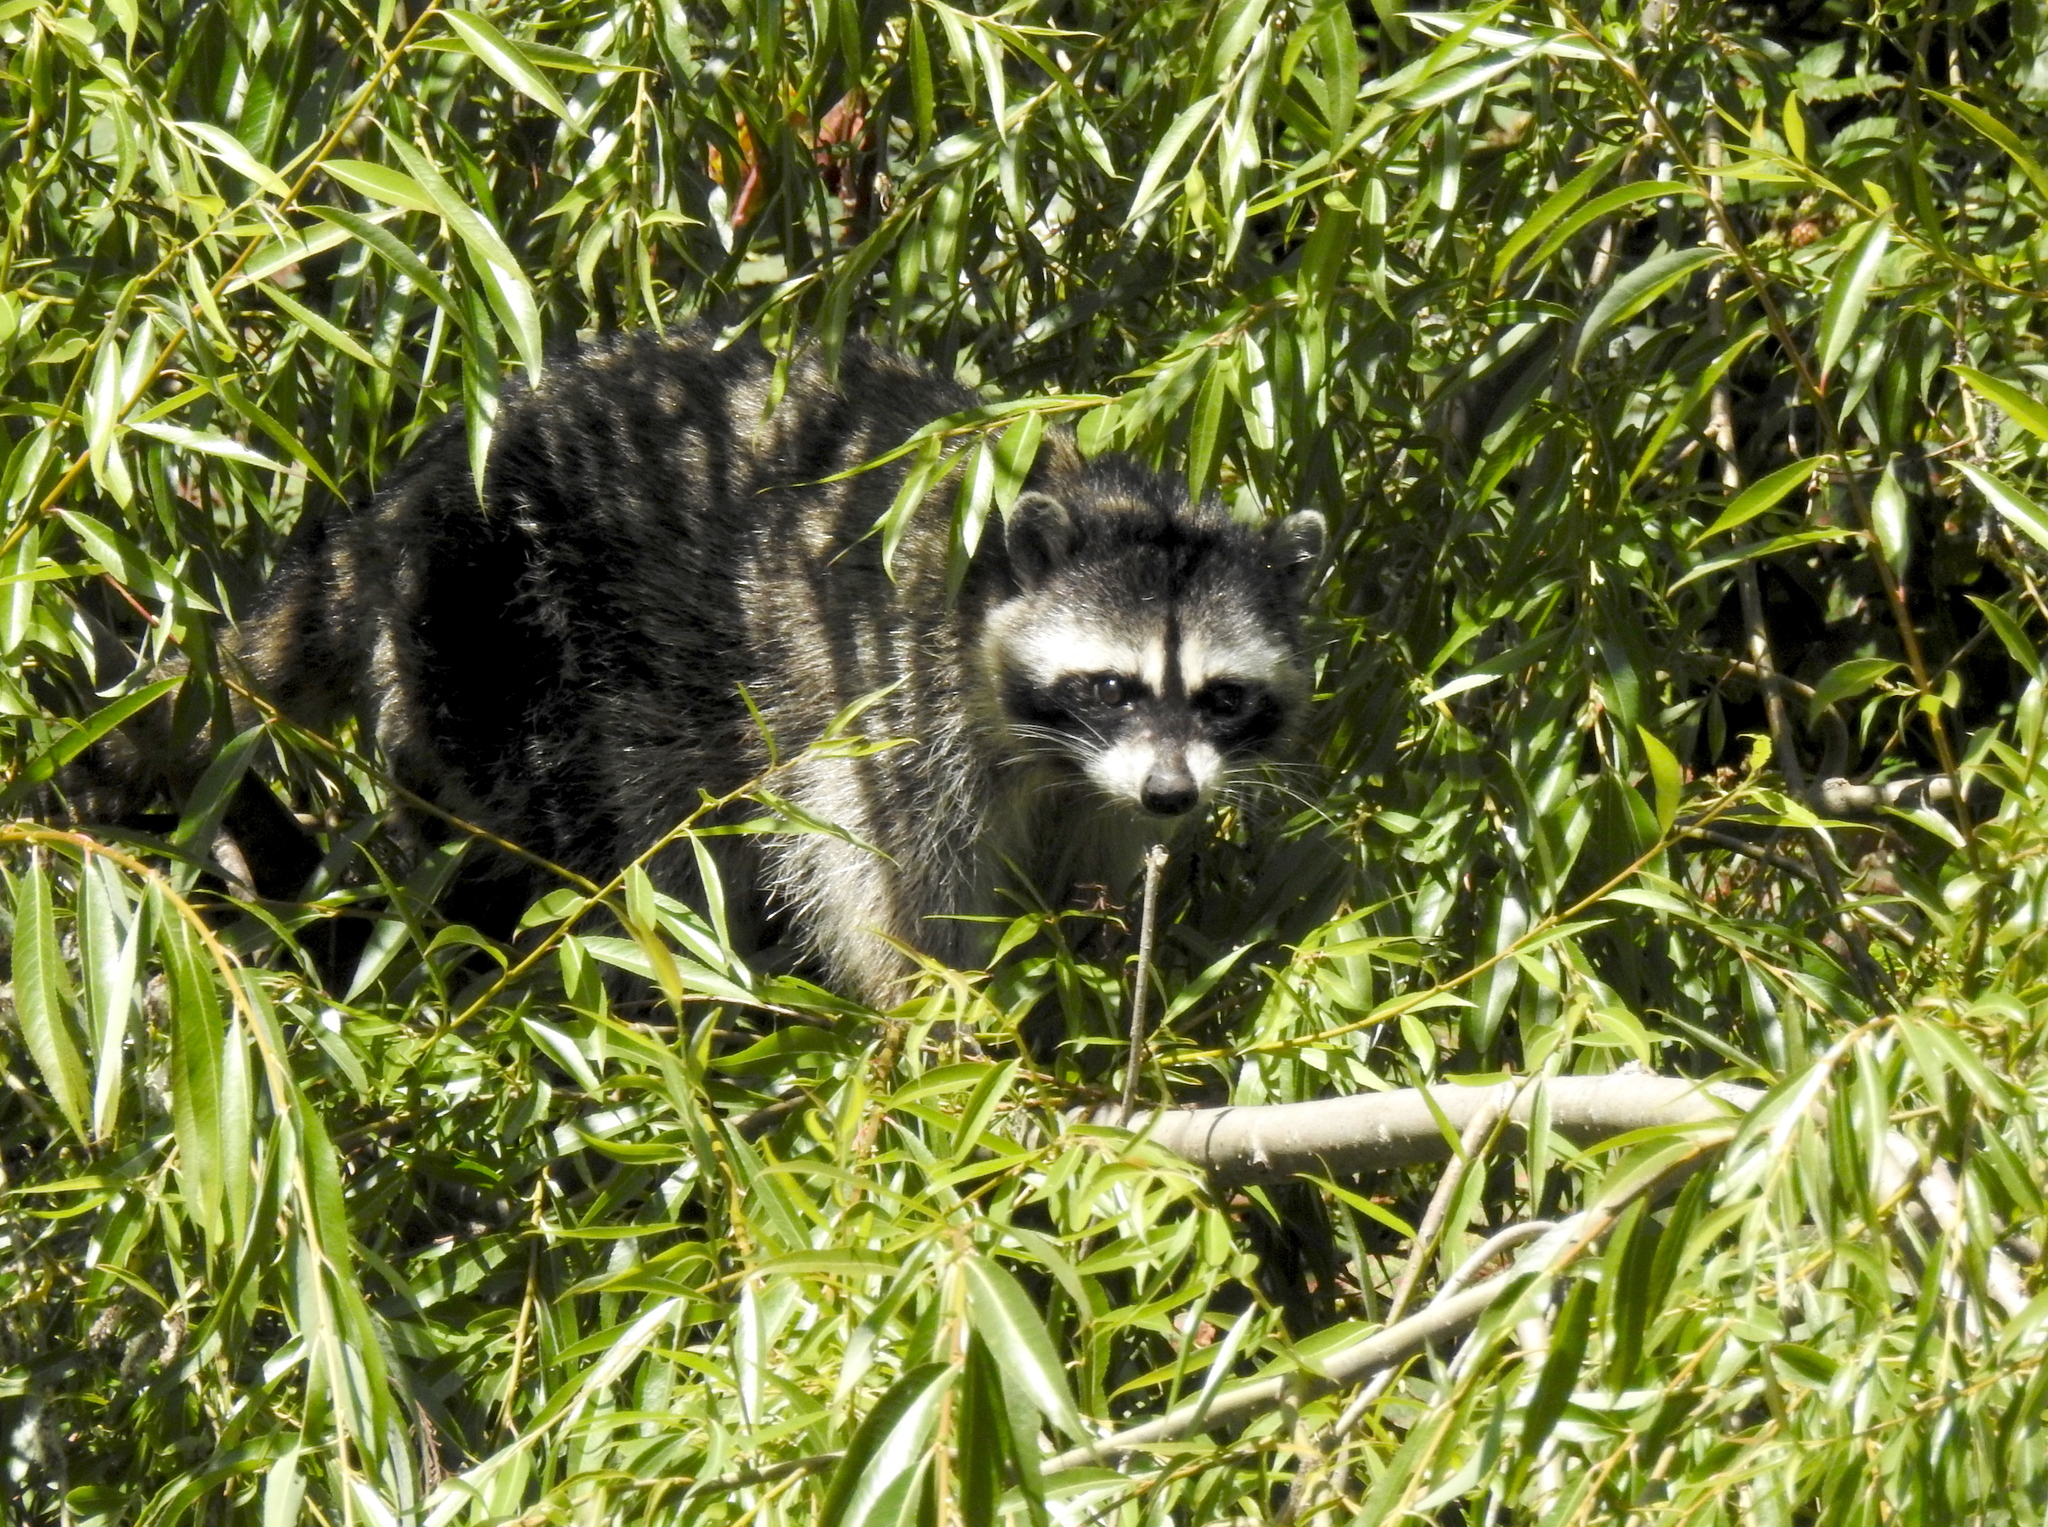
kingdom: Animalia
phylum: Chordata
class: Mammalia
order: Carnivora
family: Procyonidae
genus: Procyon
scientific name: Procyon lotor
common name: Raccoon
